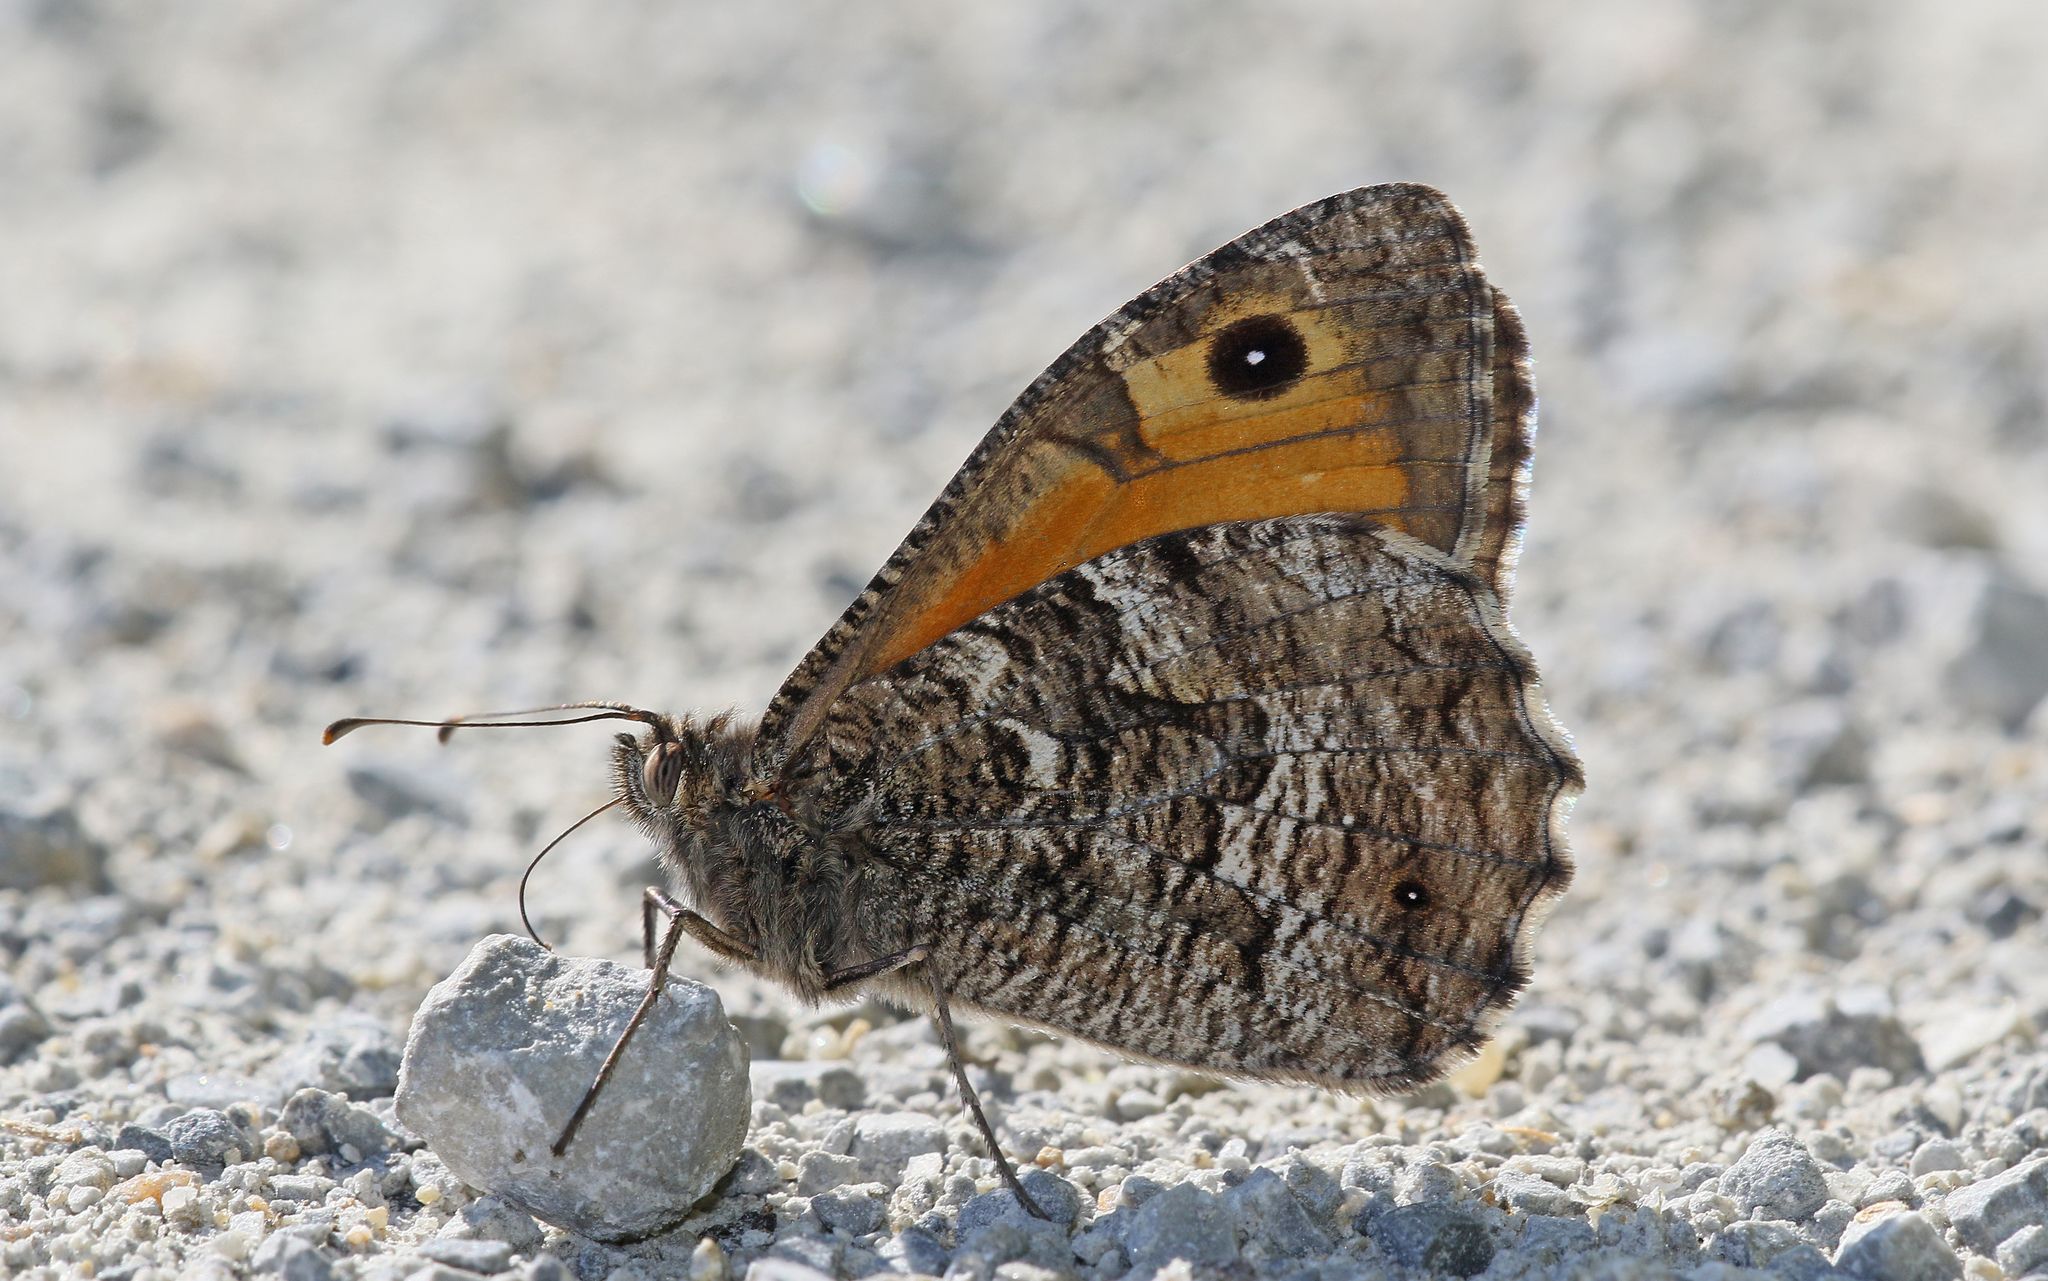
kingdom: Animalia
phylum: Arthropoda
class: Insecta
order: Lepidoptera
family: Nymphalidae
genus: Hipparchia
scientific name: Hipparchia semele
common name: Grayling
